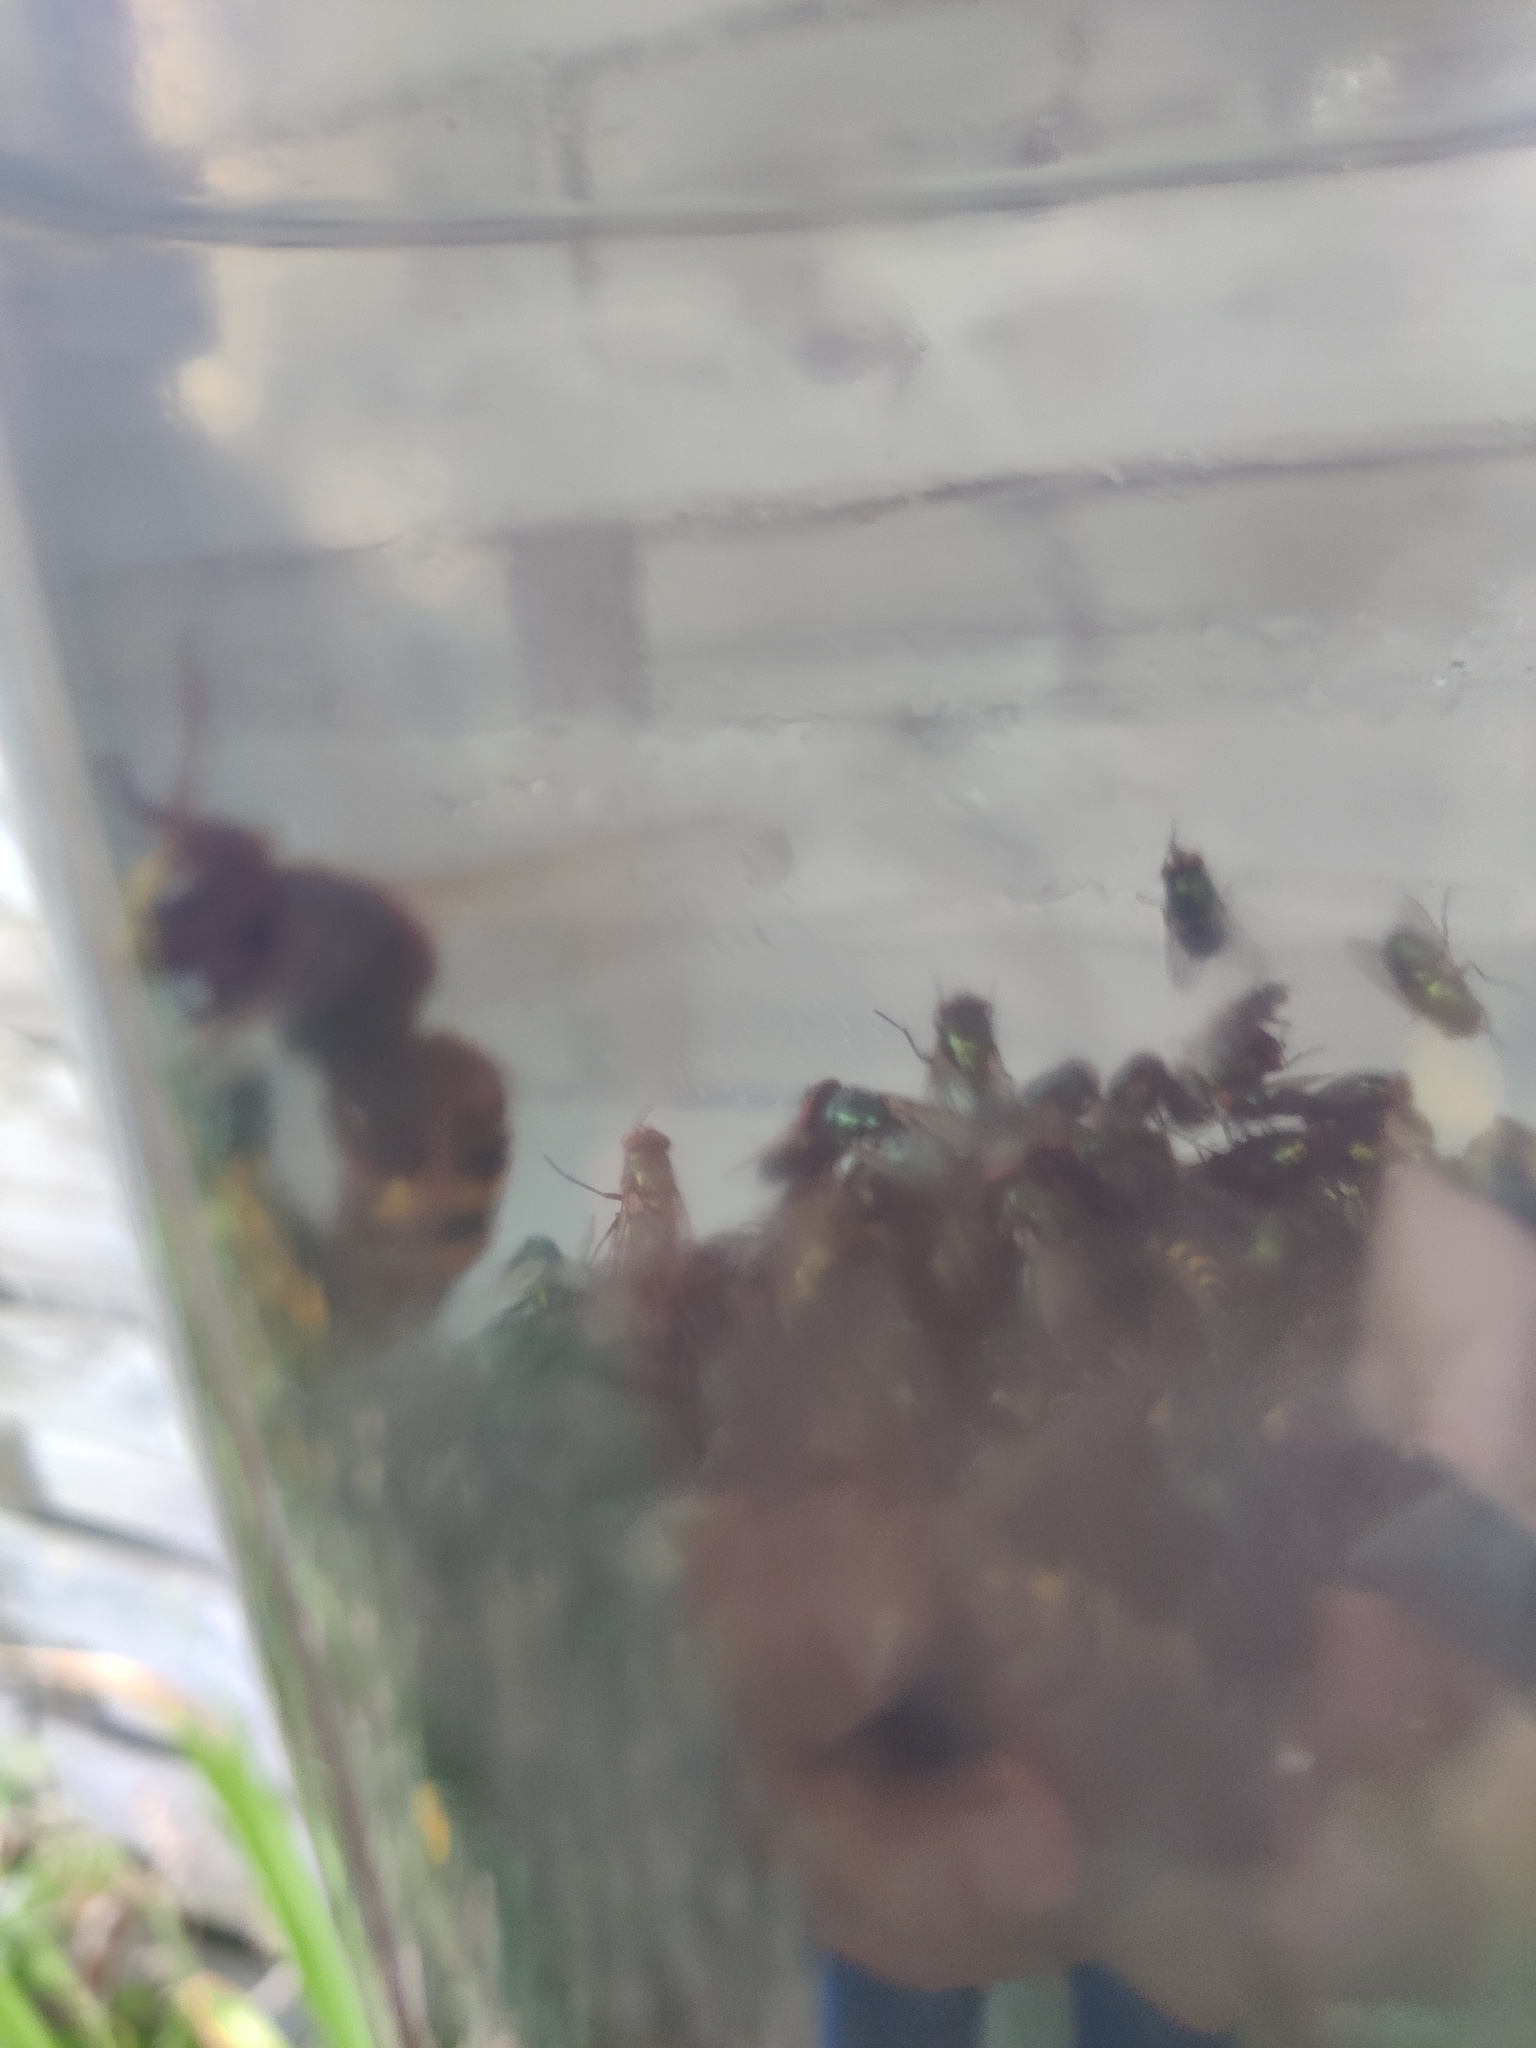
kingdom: Animalia
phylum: Arthropoda
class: Insecta
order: Hymenoptera
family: Vespidae
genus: Vespa
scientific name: Vespa crabro
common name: Hornet
